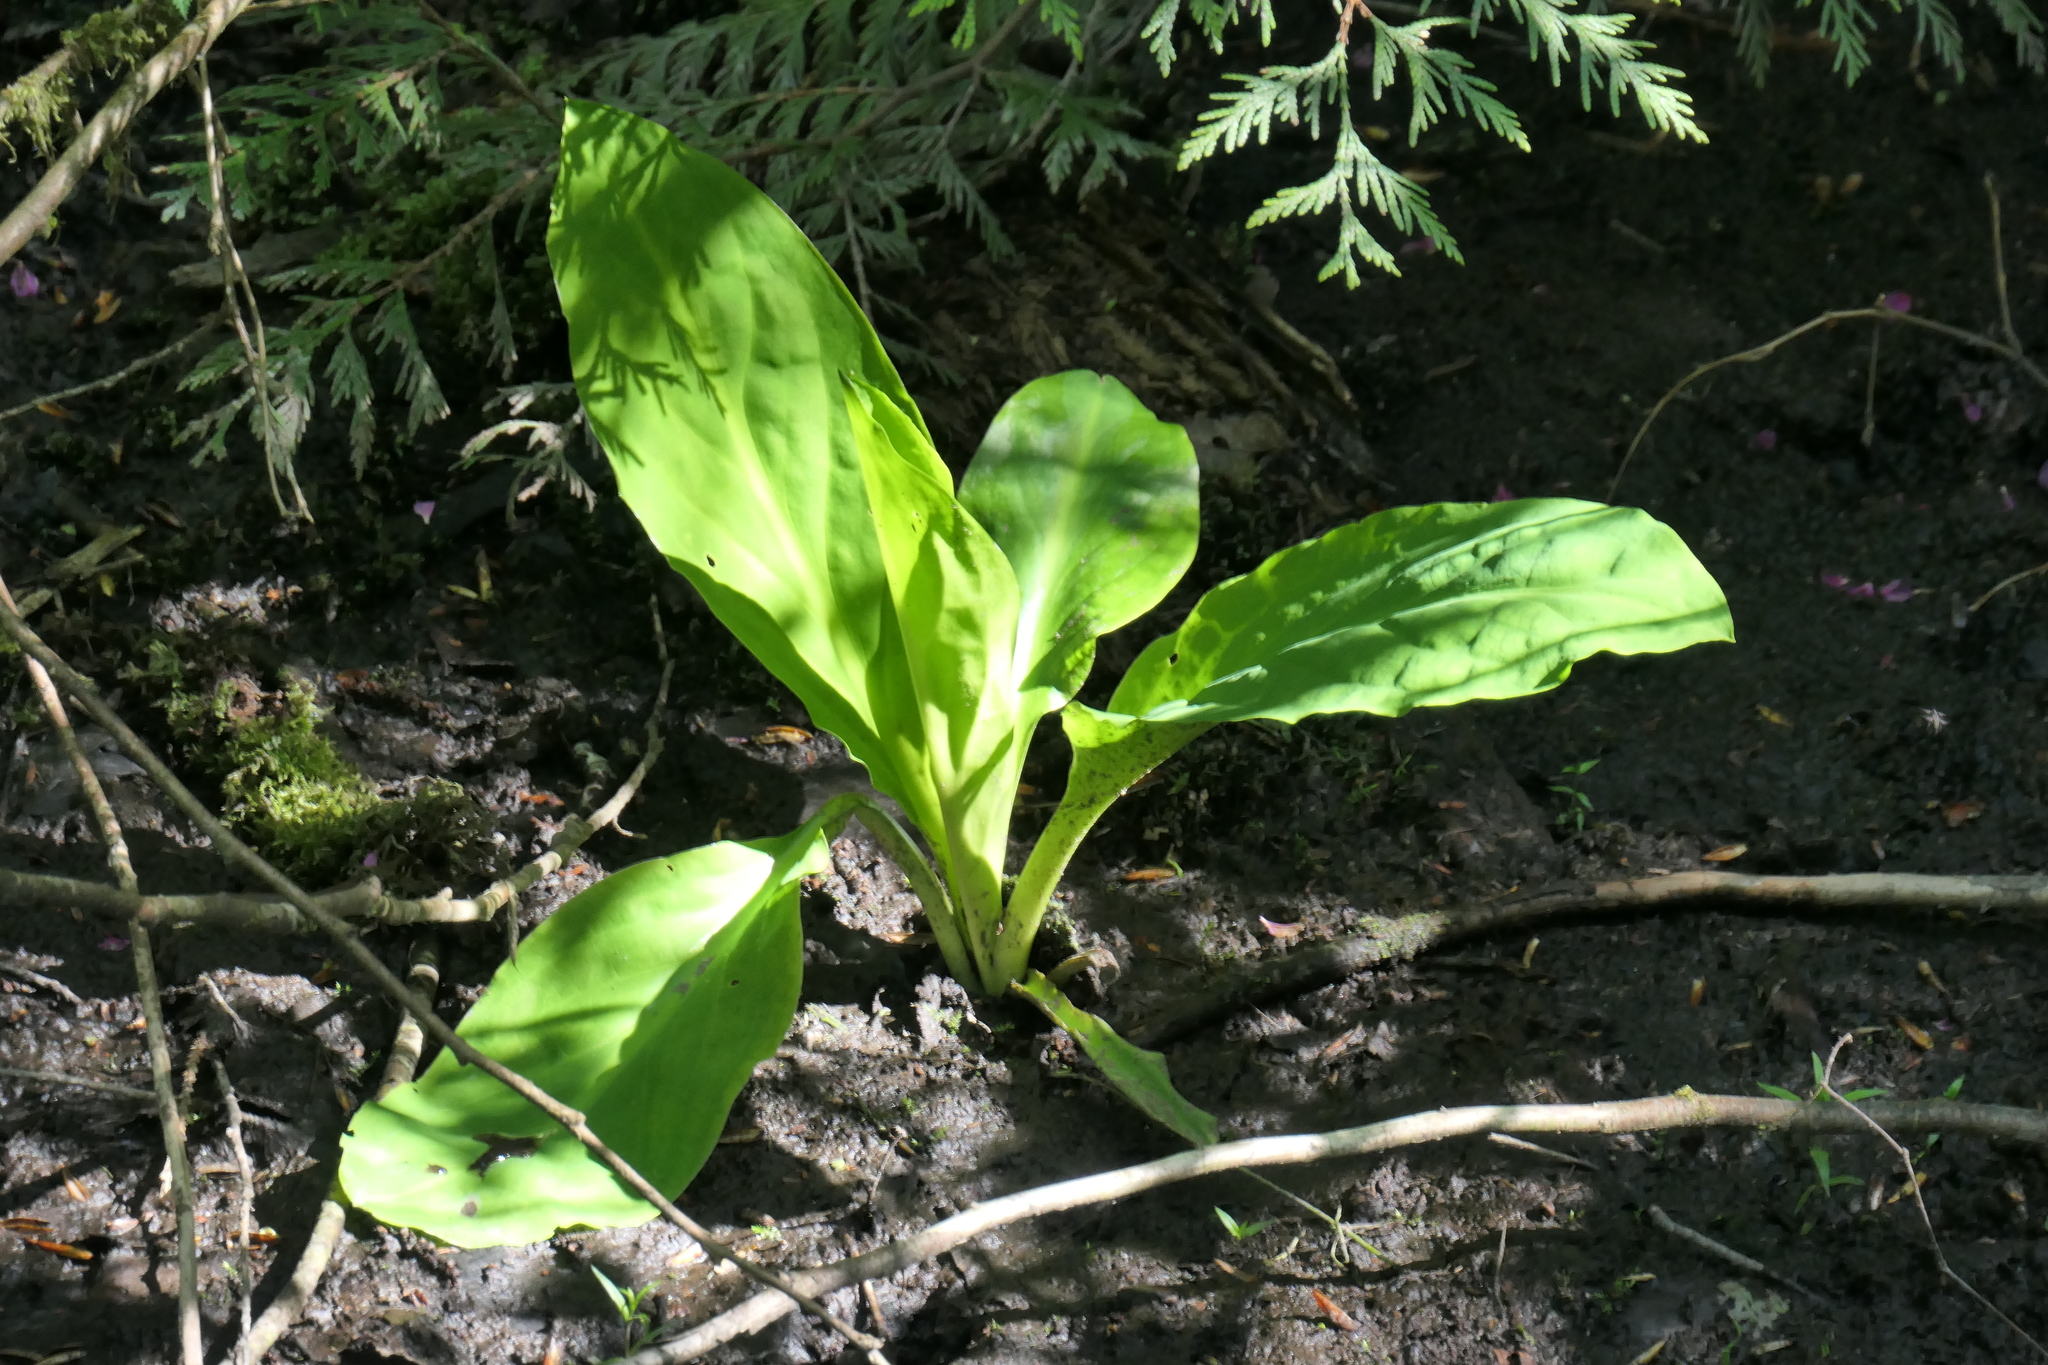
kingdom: Plantae
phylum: Tracheophyta
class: Liliopsida
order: Alismatales
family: Araceae
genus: Lysichiton
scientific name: Lysichiton americanus
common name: American skunk cabbage
